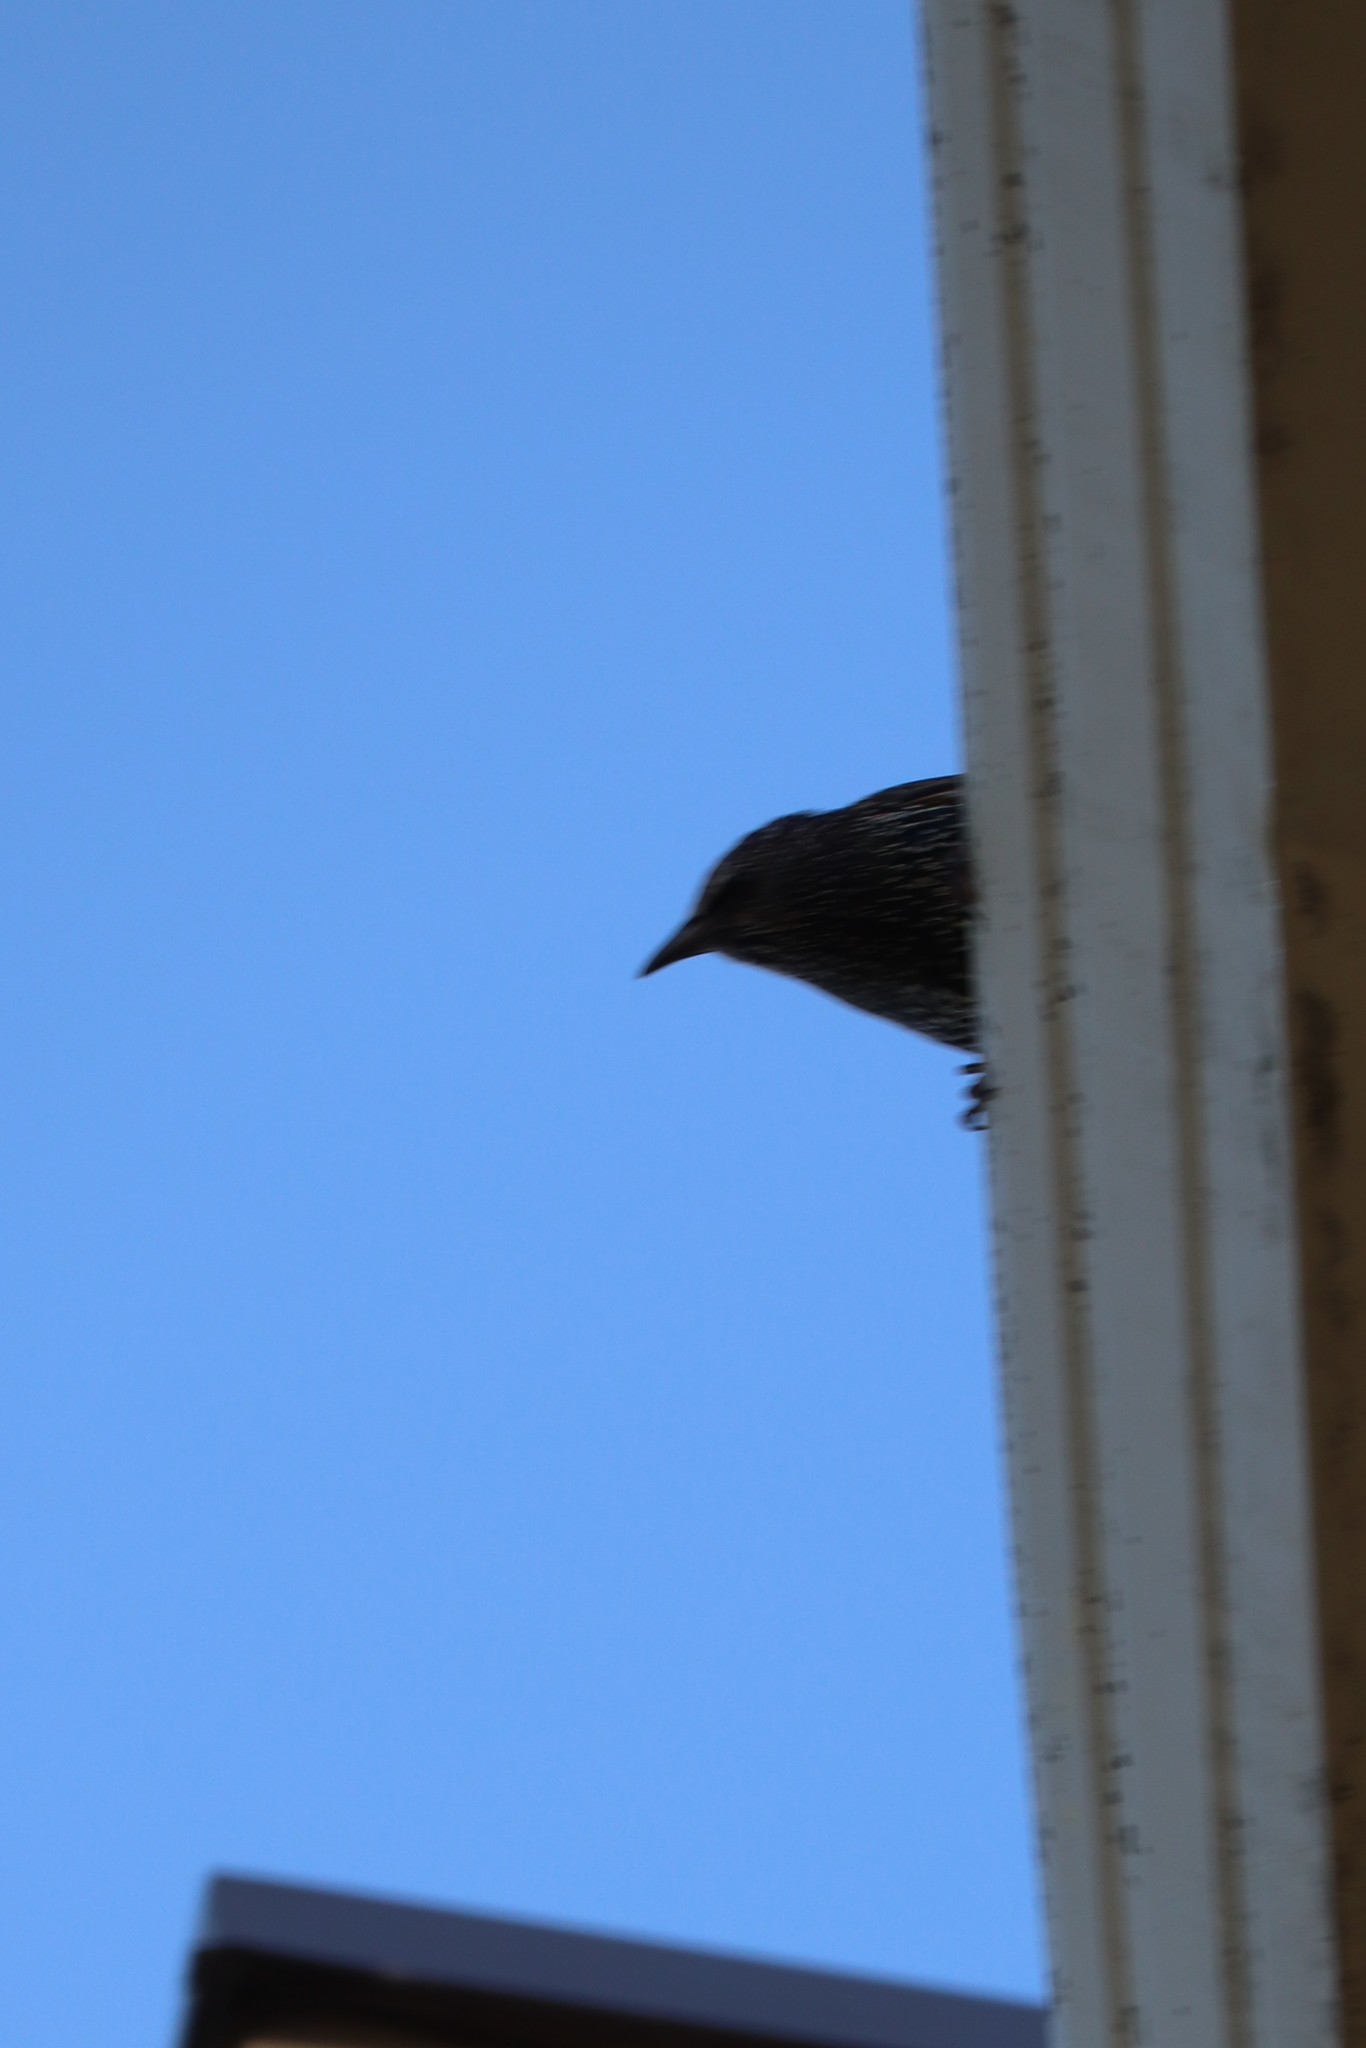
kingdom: Animalia
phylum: Chordata
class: Aves
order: Passeriformes
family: Sturnidae
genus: Sturnus
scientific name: Sturnus vulgaris
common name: Common starling
